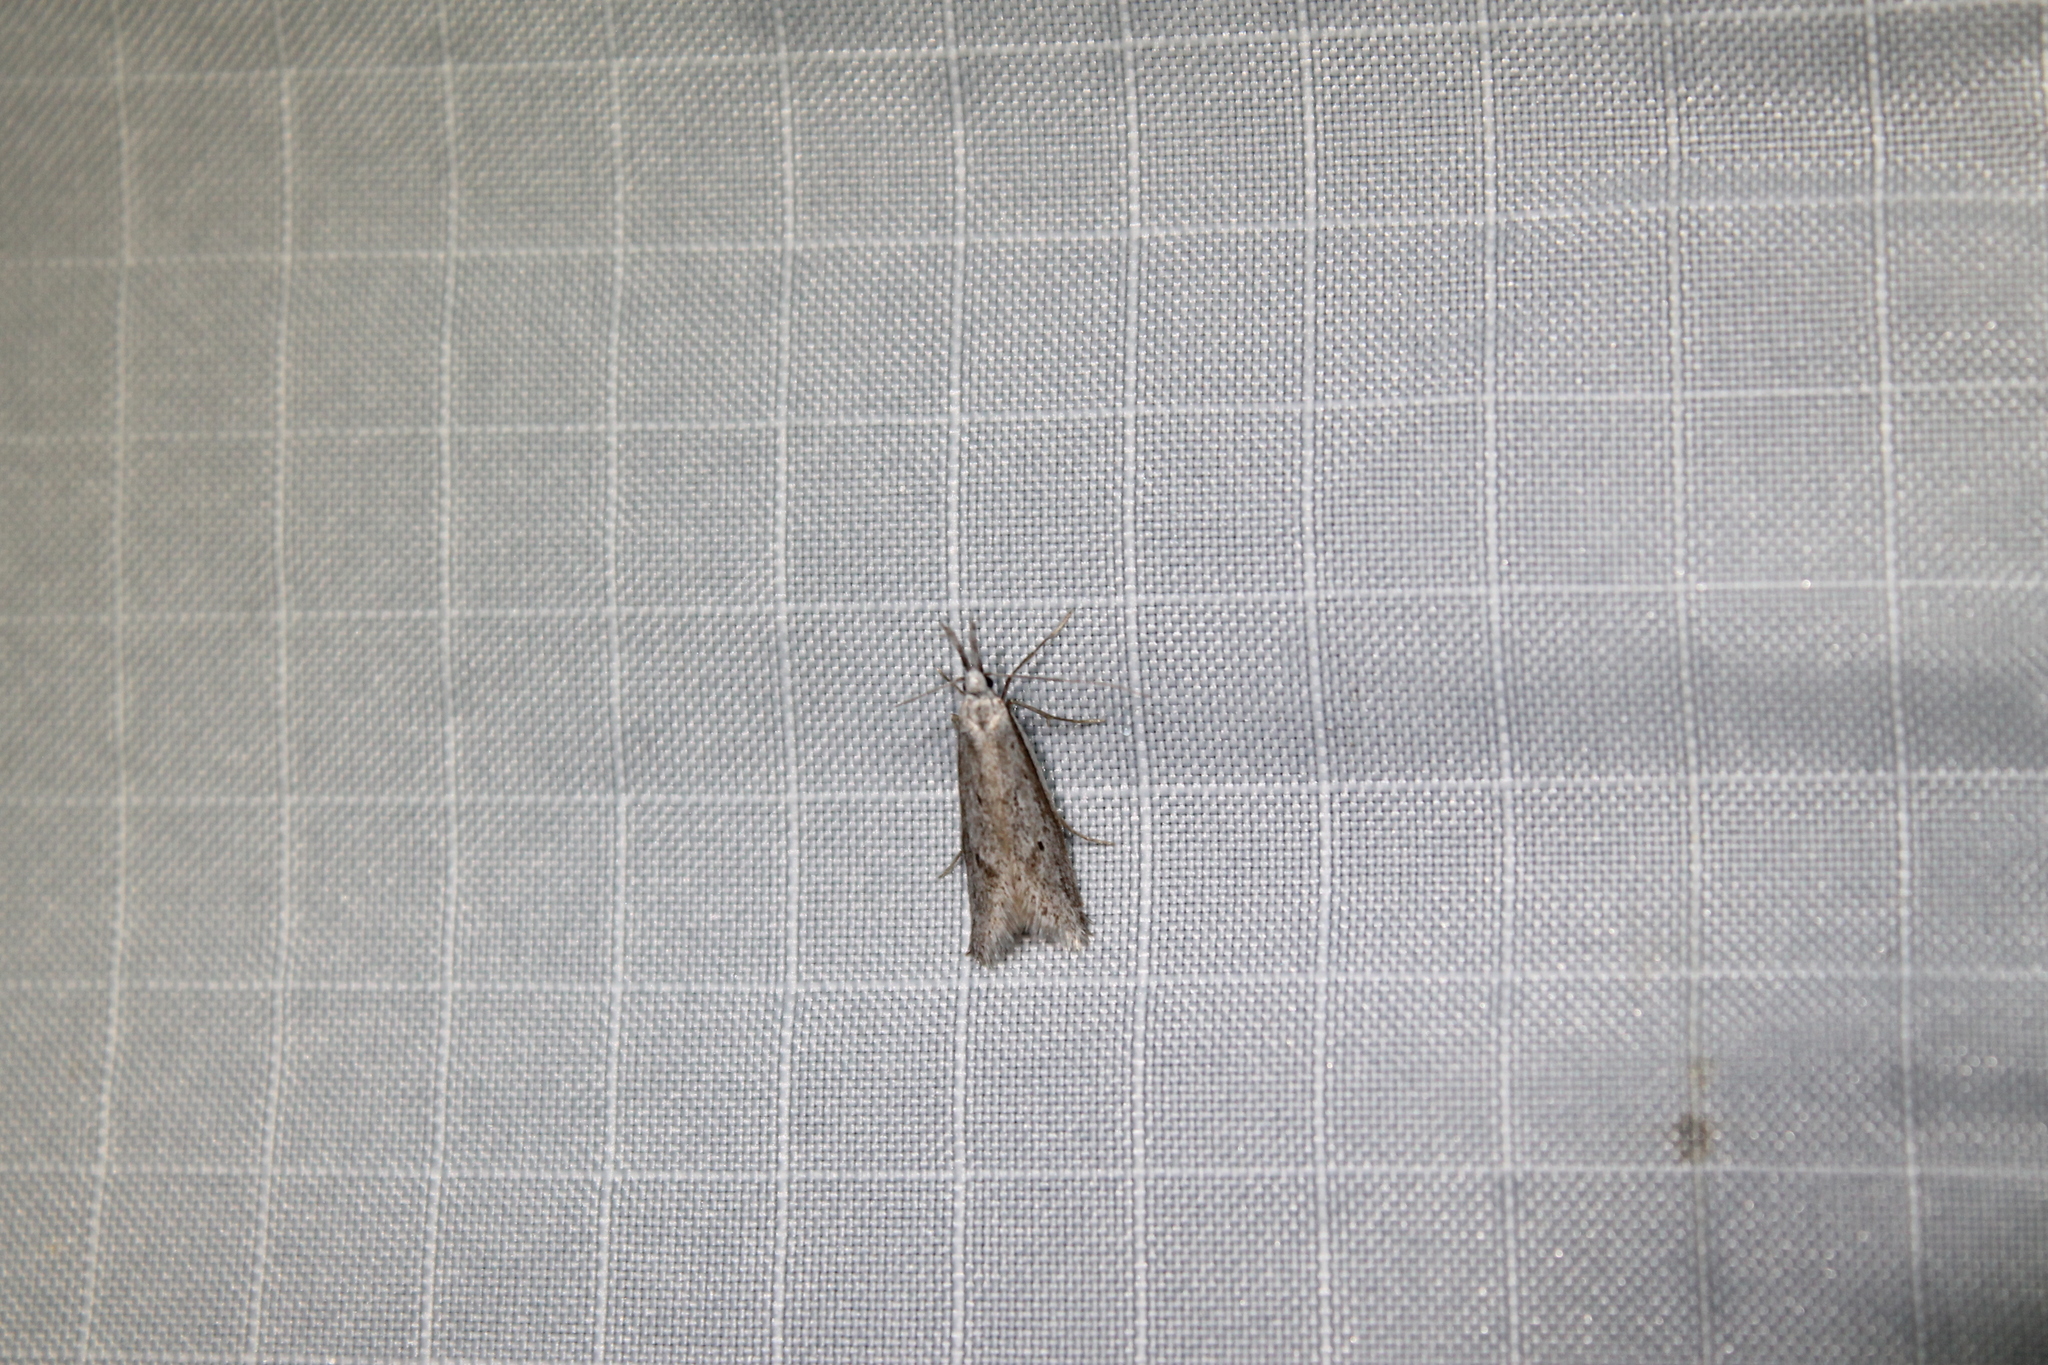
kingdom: Animalia
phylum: Arthropoda
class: Insecta
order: Lepidoptera
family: Oecophoridae
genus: Pleurota
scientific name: Pleurota albastrigulella
